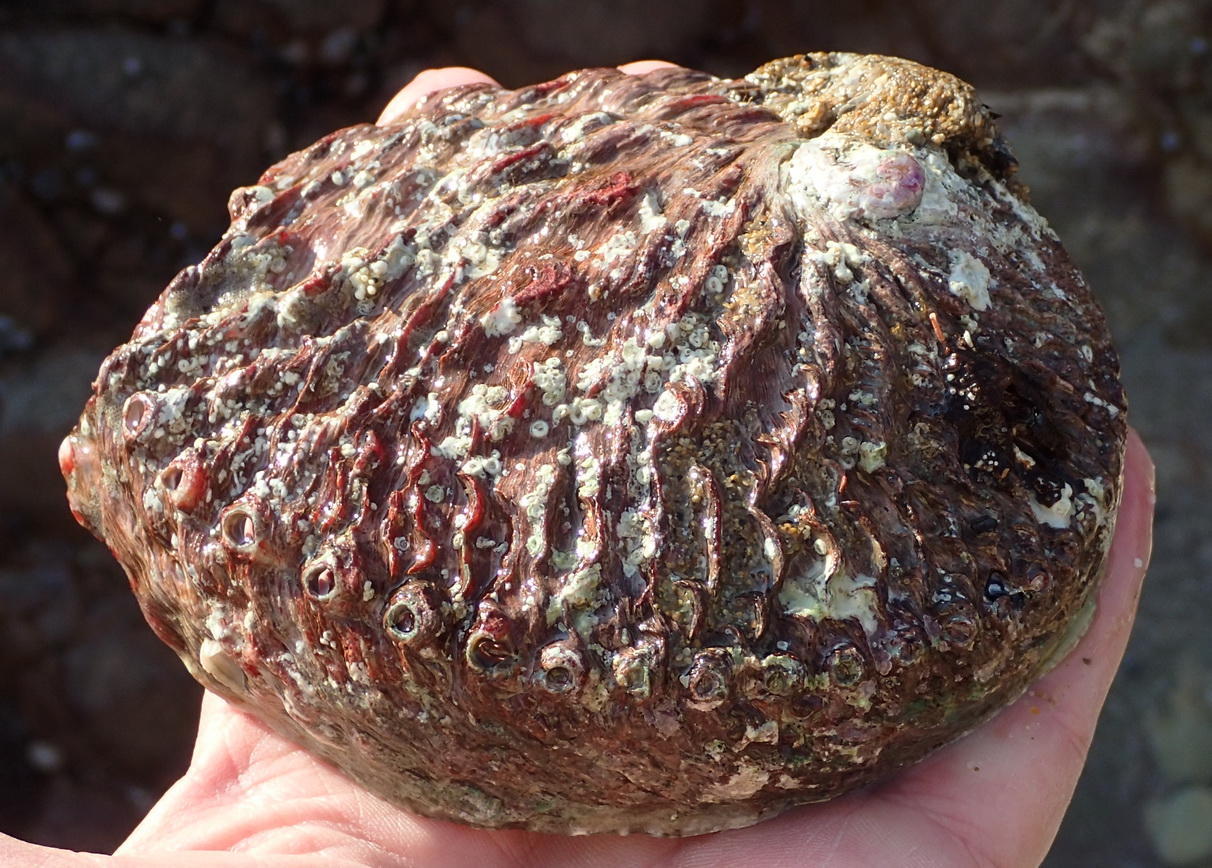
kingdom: Animalia
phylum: Mollusca
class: Gastropoda
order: Lepetellida
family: Haliotidae
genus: Haliotis
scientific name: Haliotis midae
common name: Perlemoen
